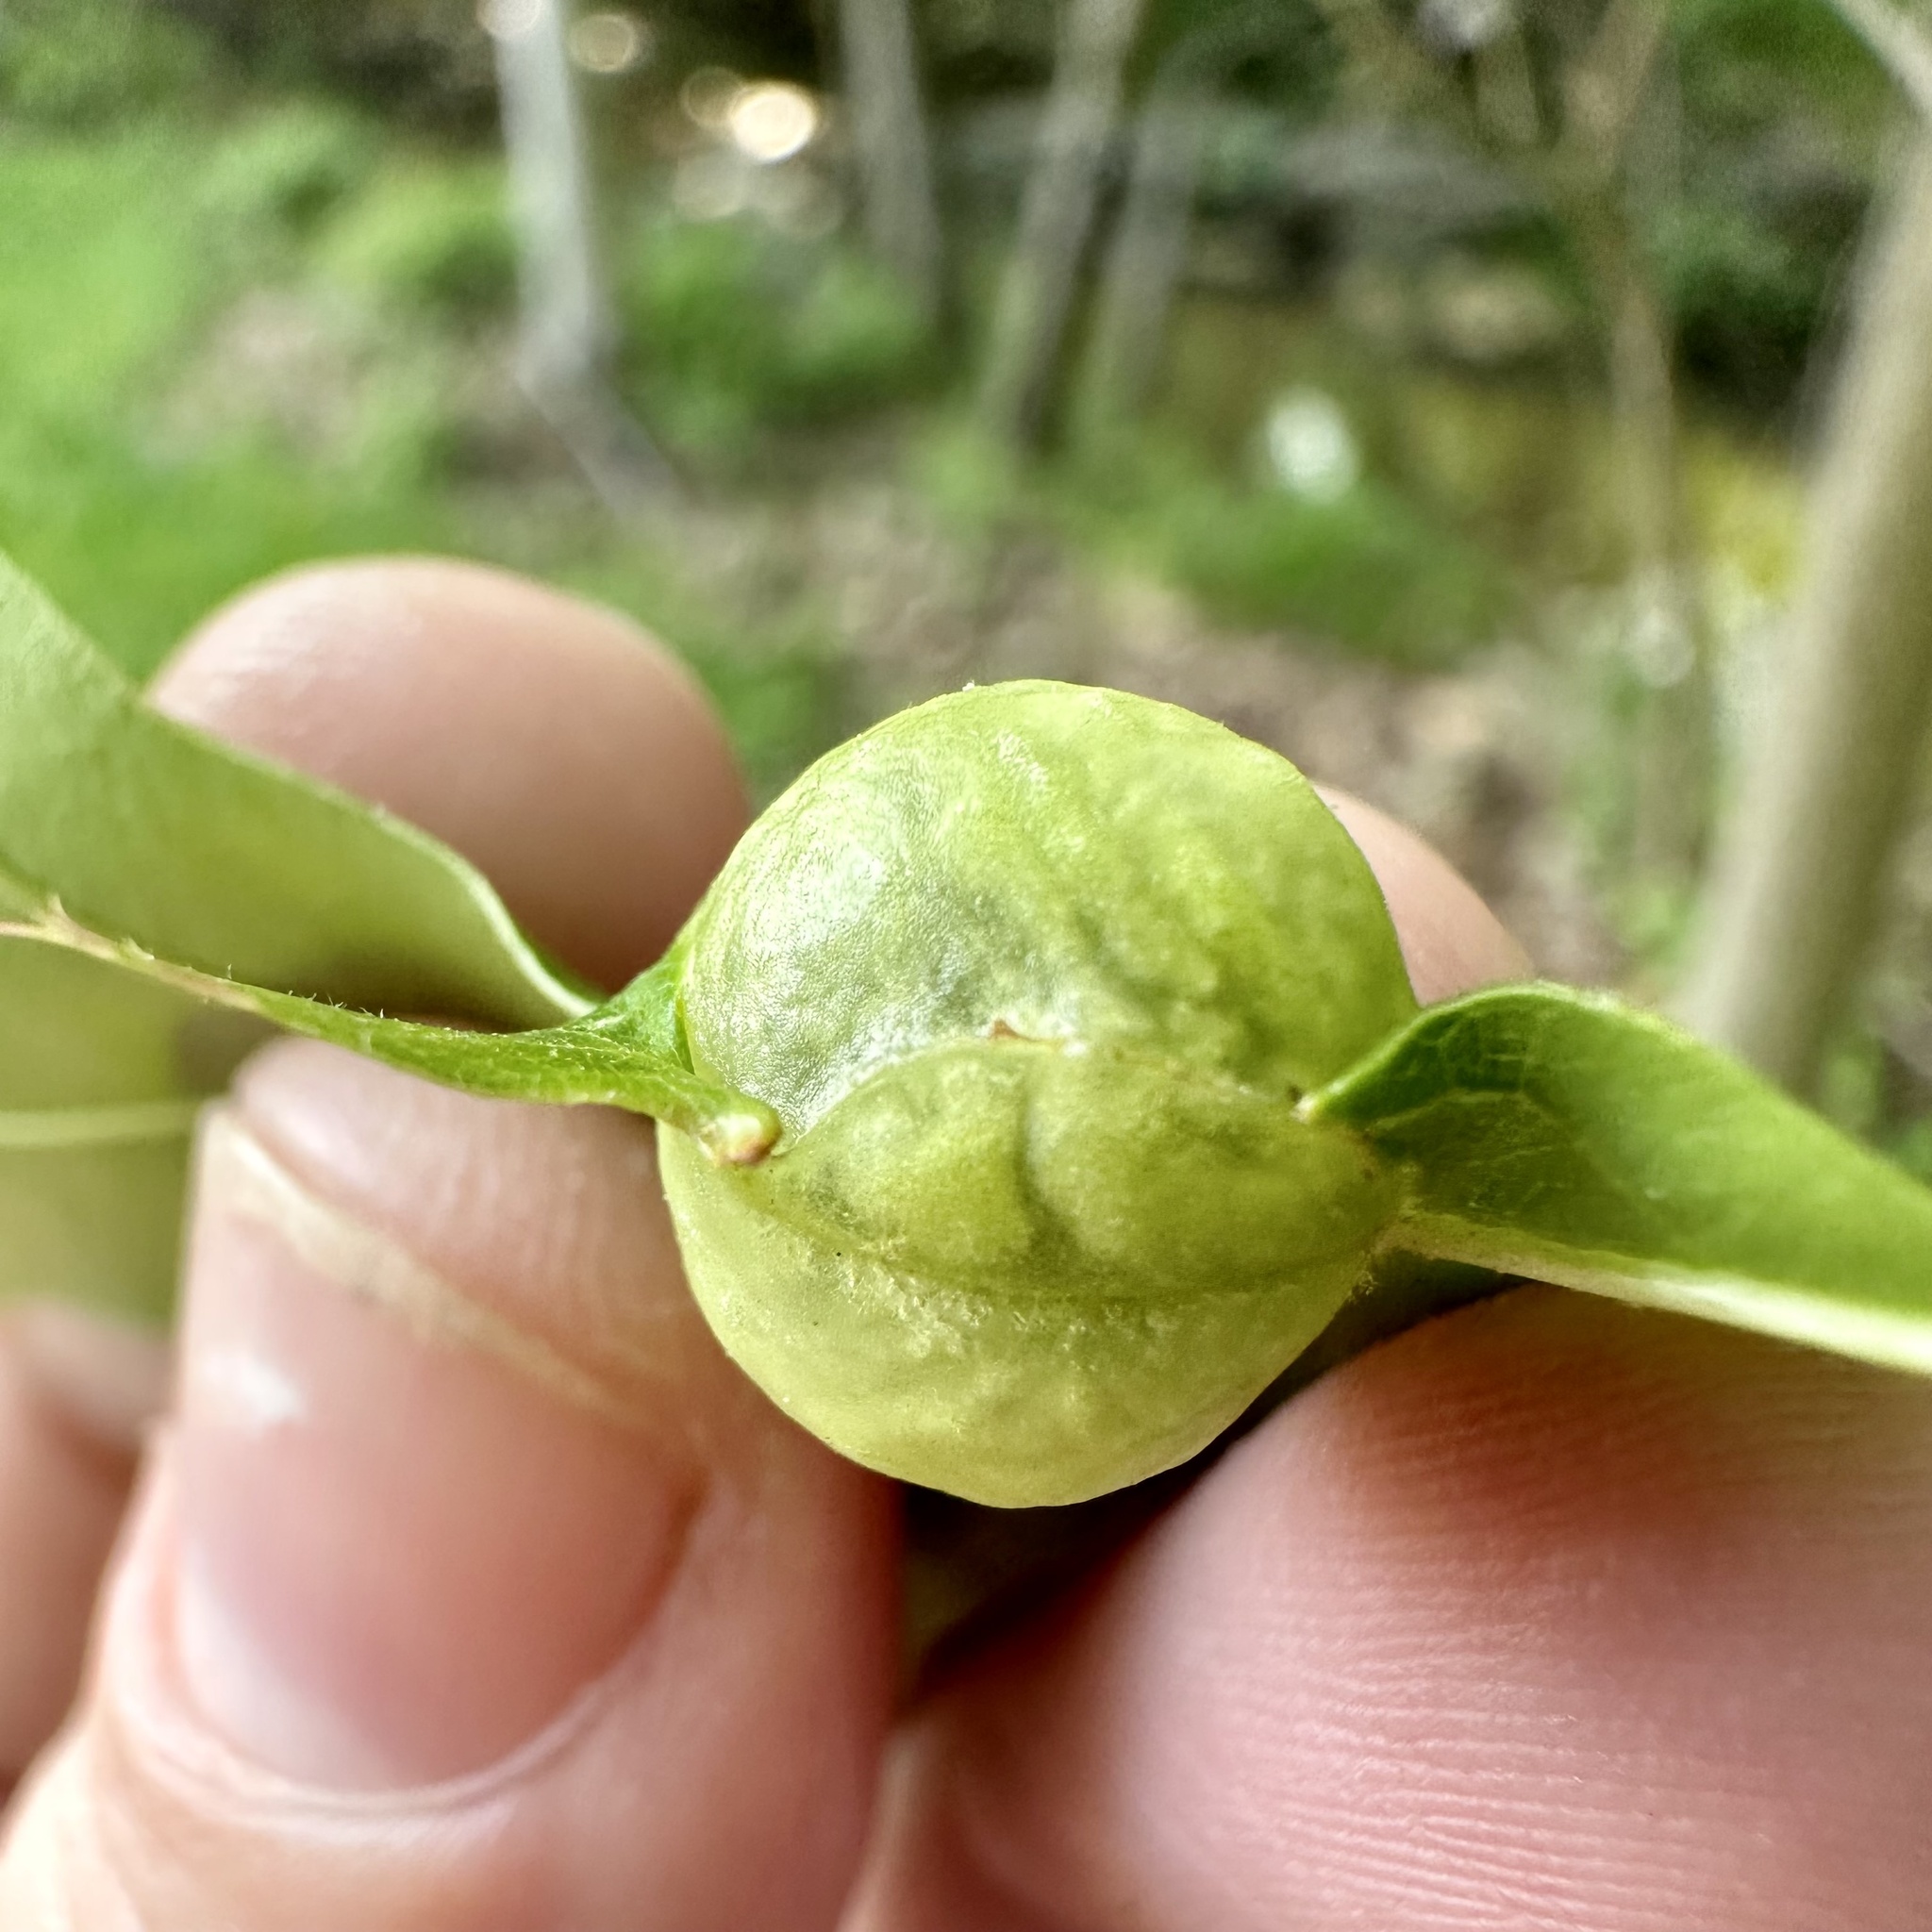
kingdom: Animalia
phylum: Arthropoda
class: Insecta
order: Hymenoptera
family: Cynipidae
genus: Dryocosmus
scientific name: Dryocosmus quercuspalustris
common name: Succulent oak gall wasp
